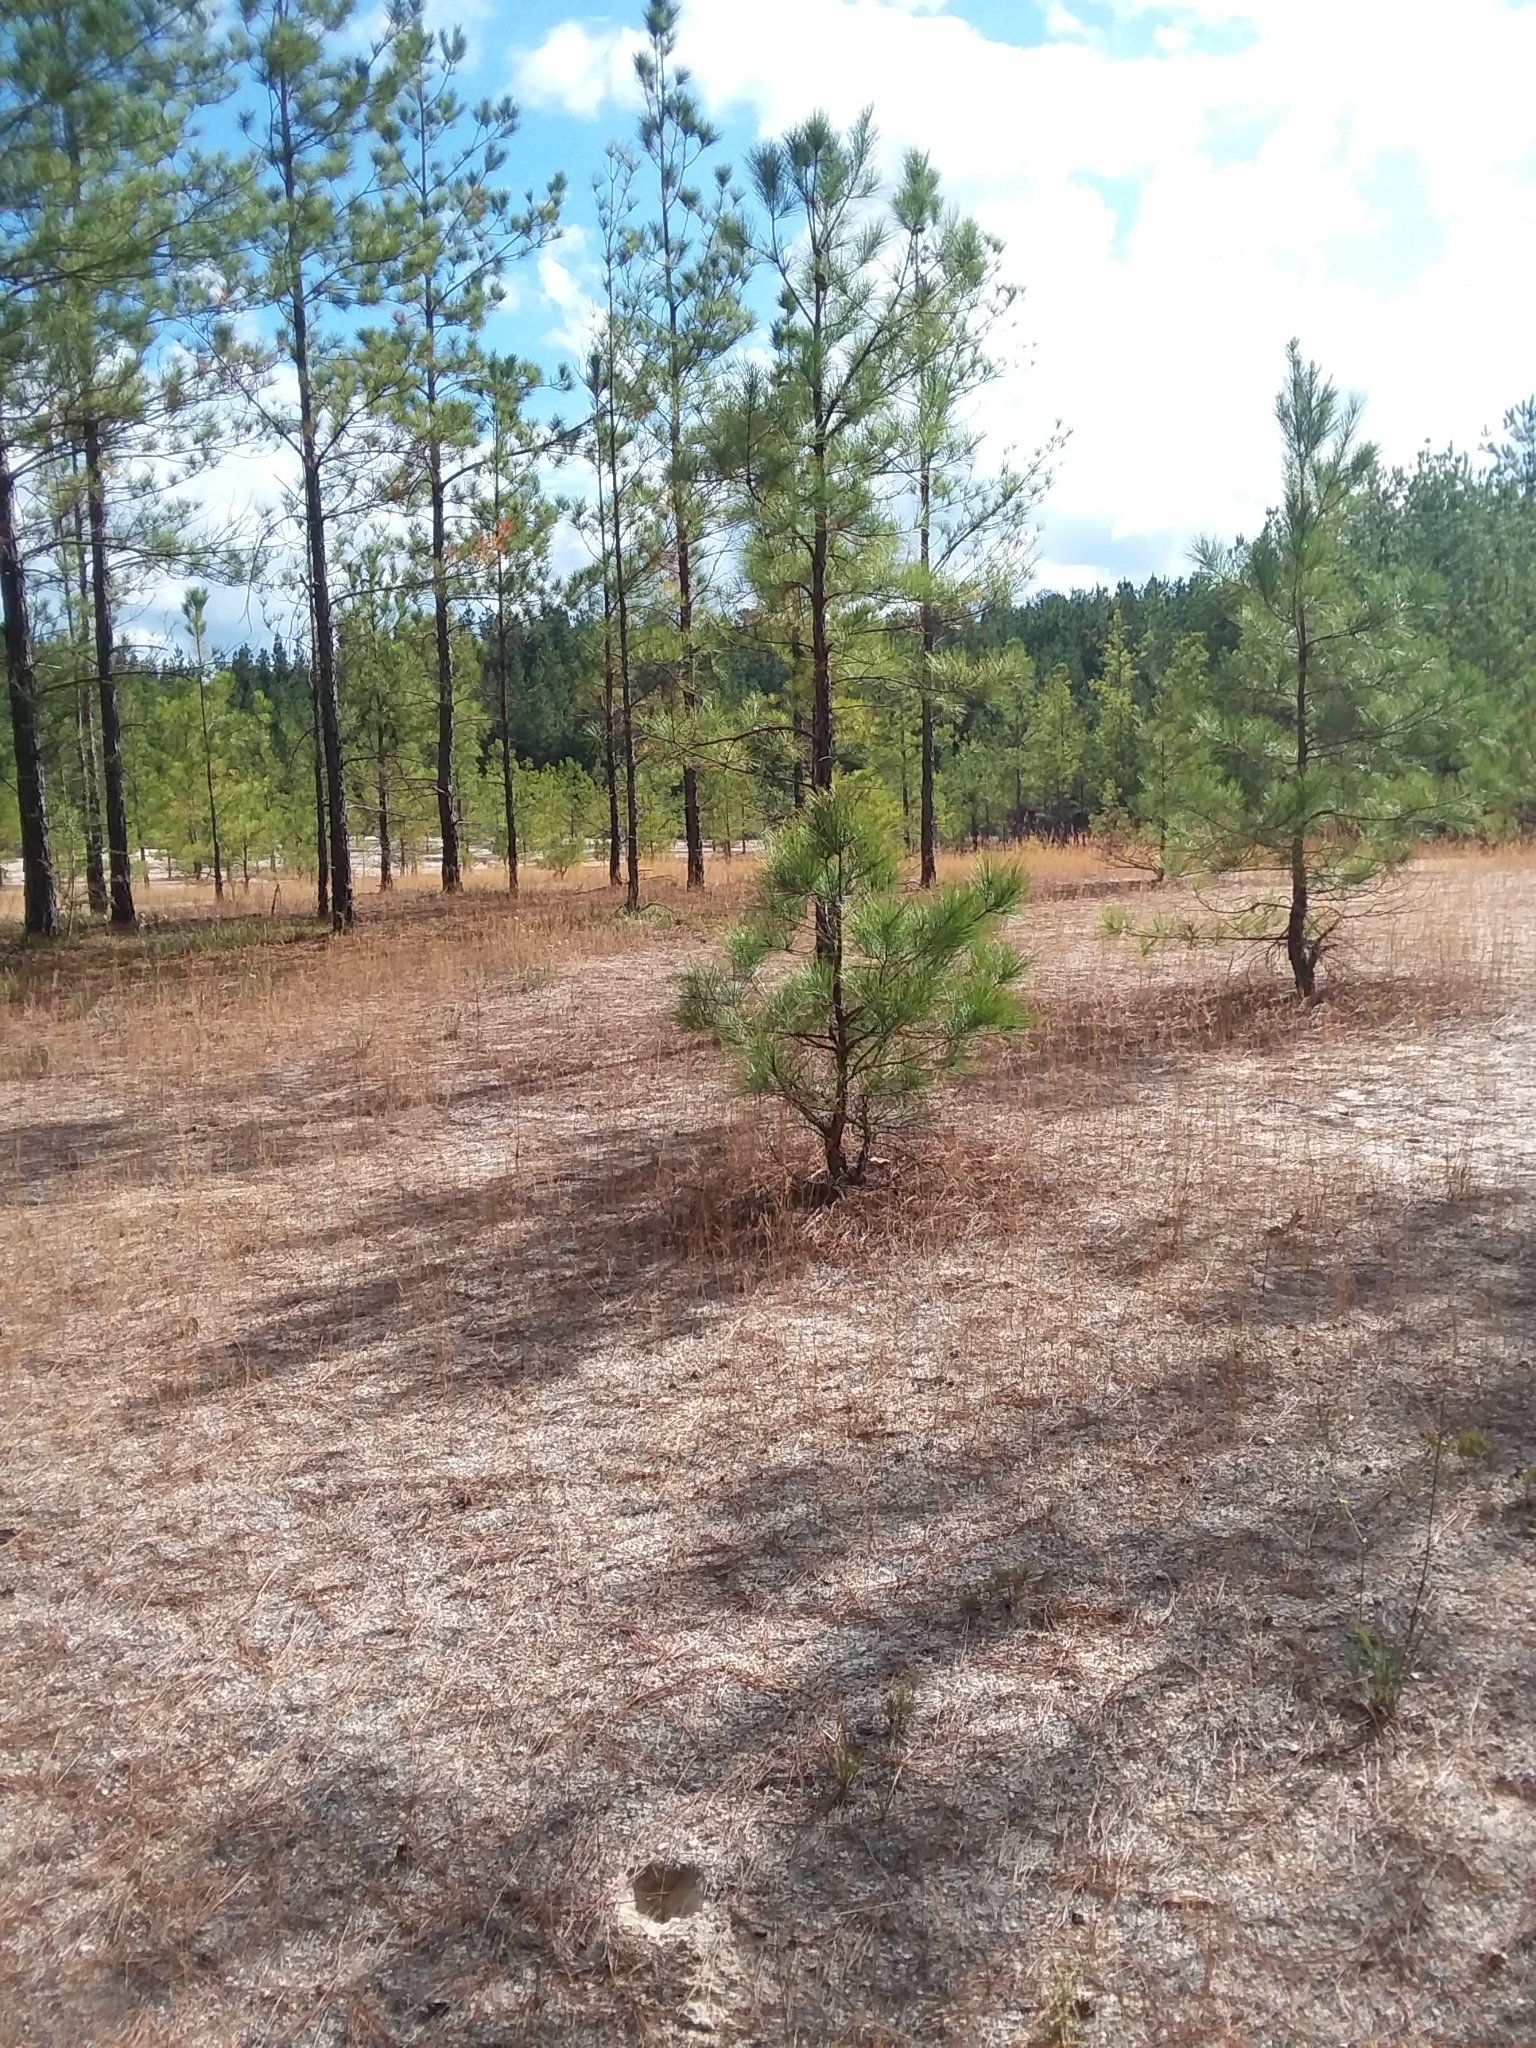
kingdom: Plantae
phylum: Tracheophyta
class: Liliopsida
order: Poales
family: Poaceae
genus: Aristida
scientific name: Aristida tuberculosa
